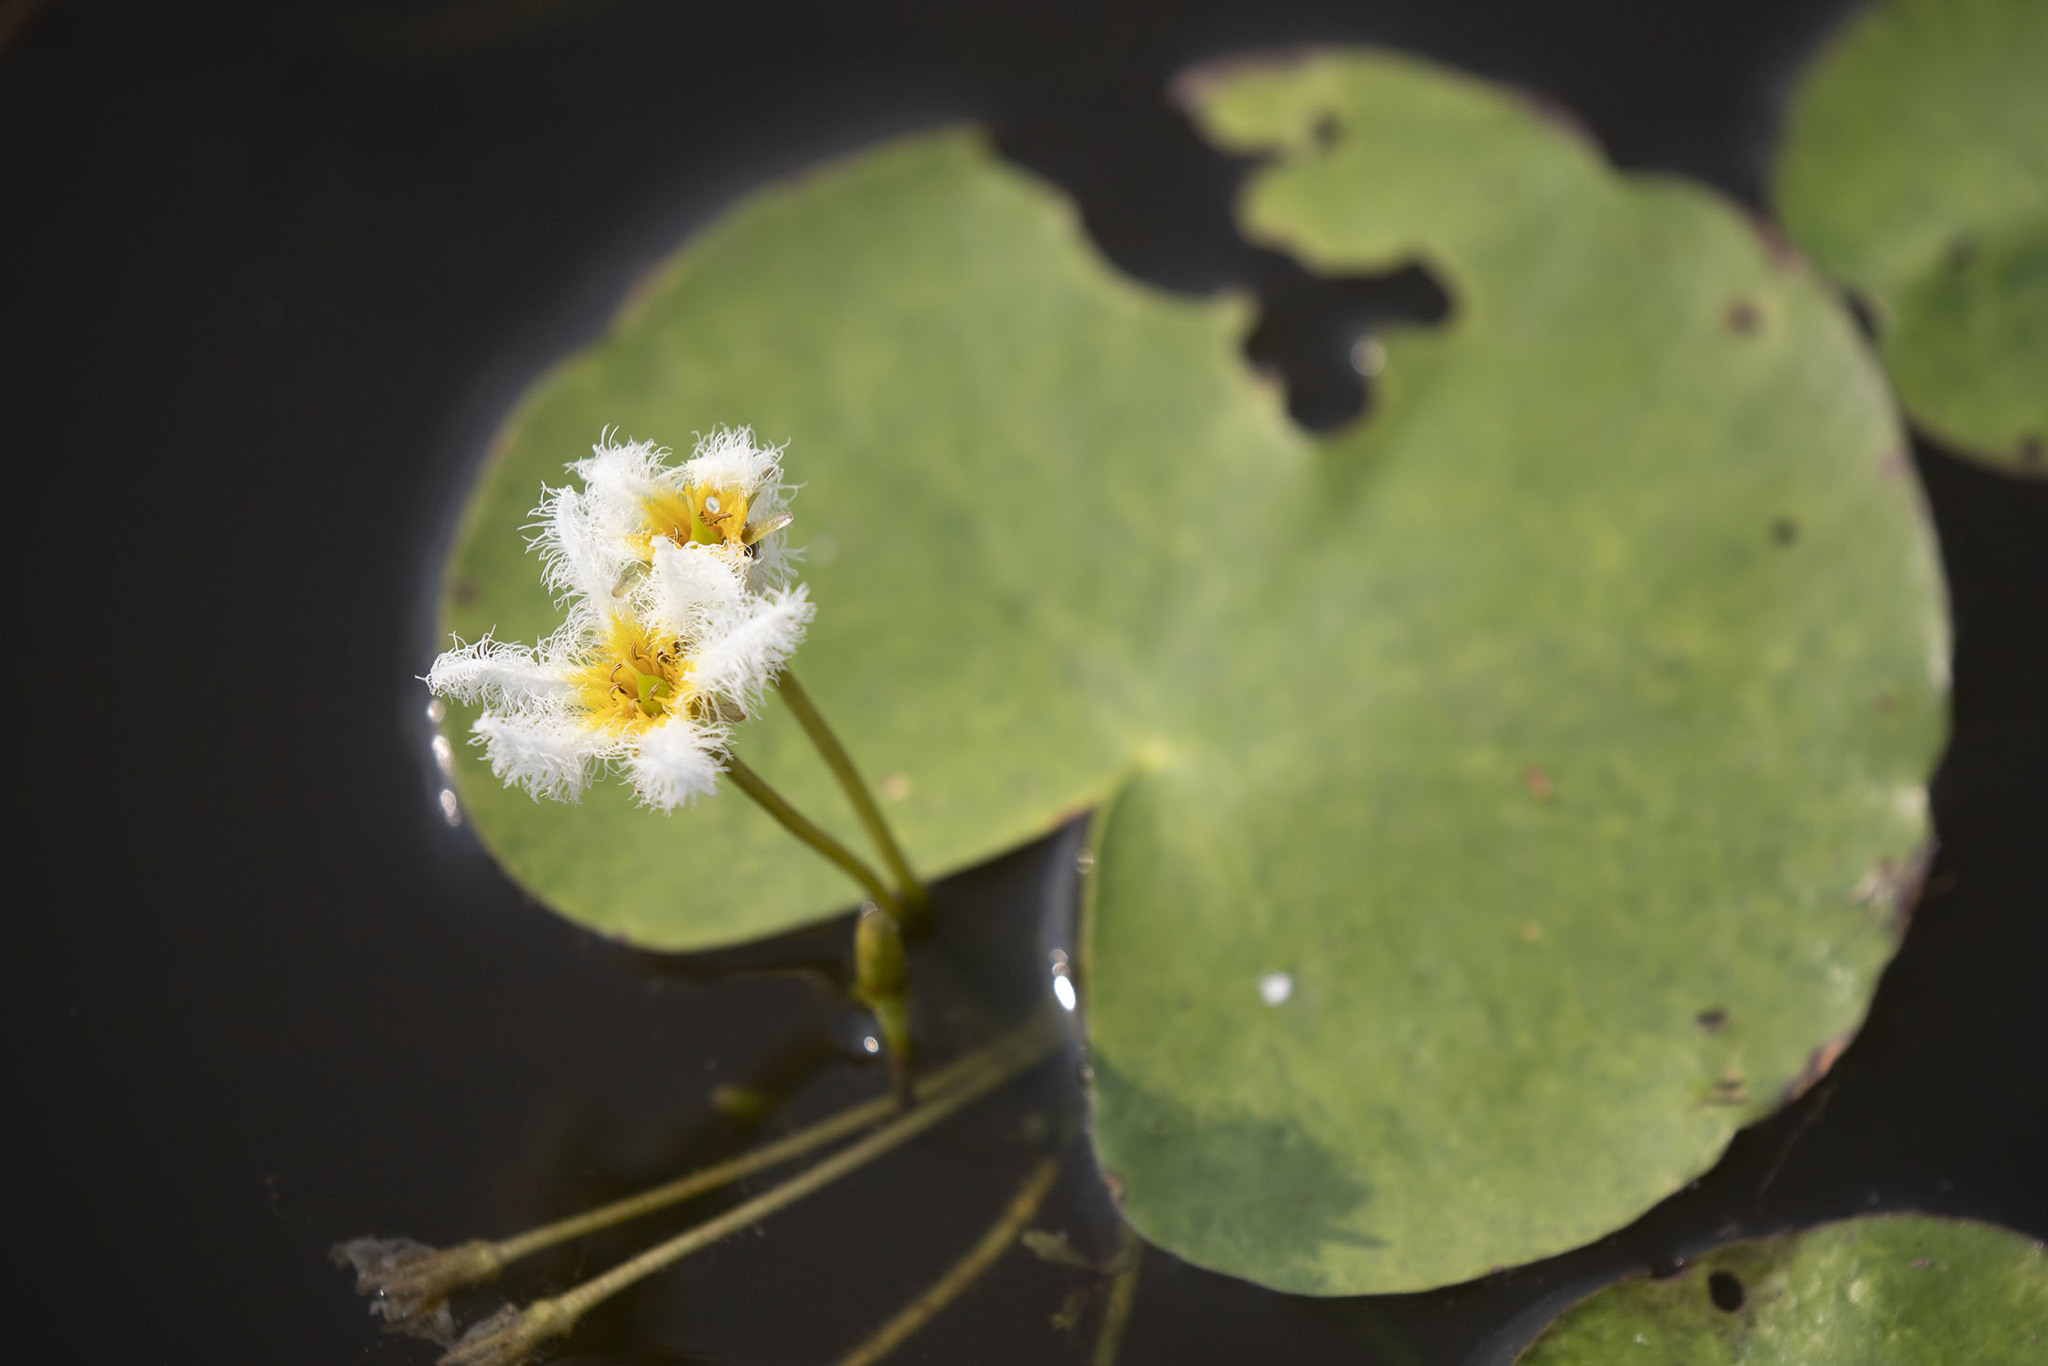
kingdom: Plantae
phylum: Tracheophyta
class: Magnoliopsida
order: Asterales
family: Menyanthaceae
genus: Nymphoides
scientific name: Nymphoides indica
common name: Water-snowflake
